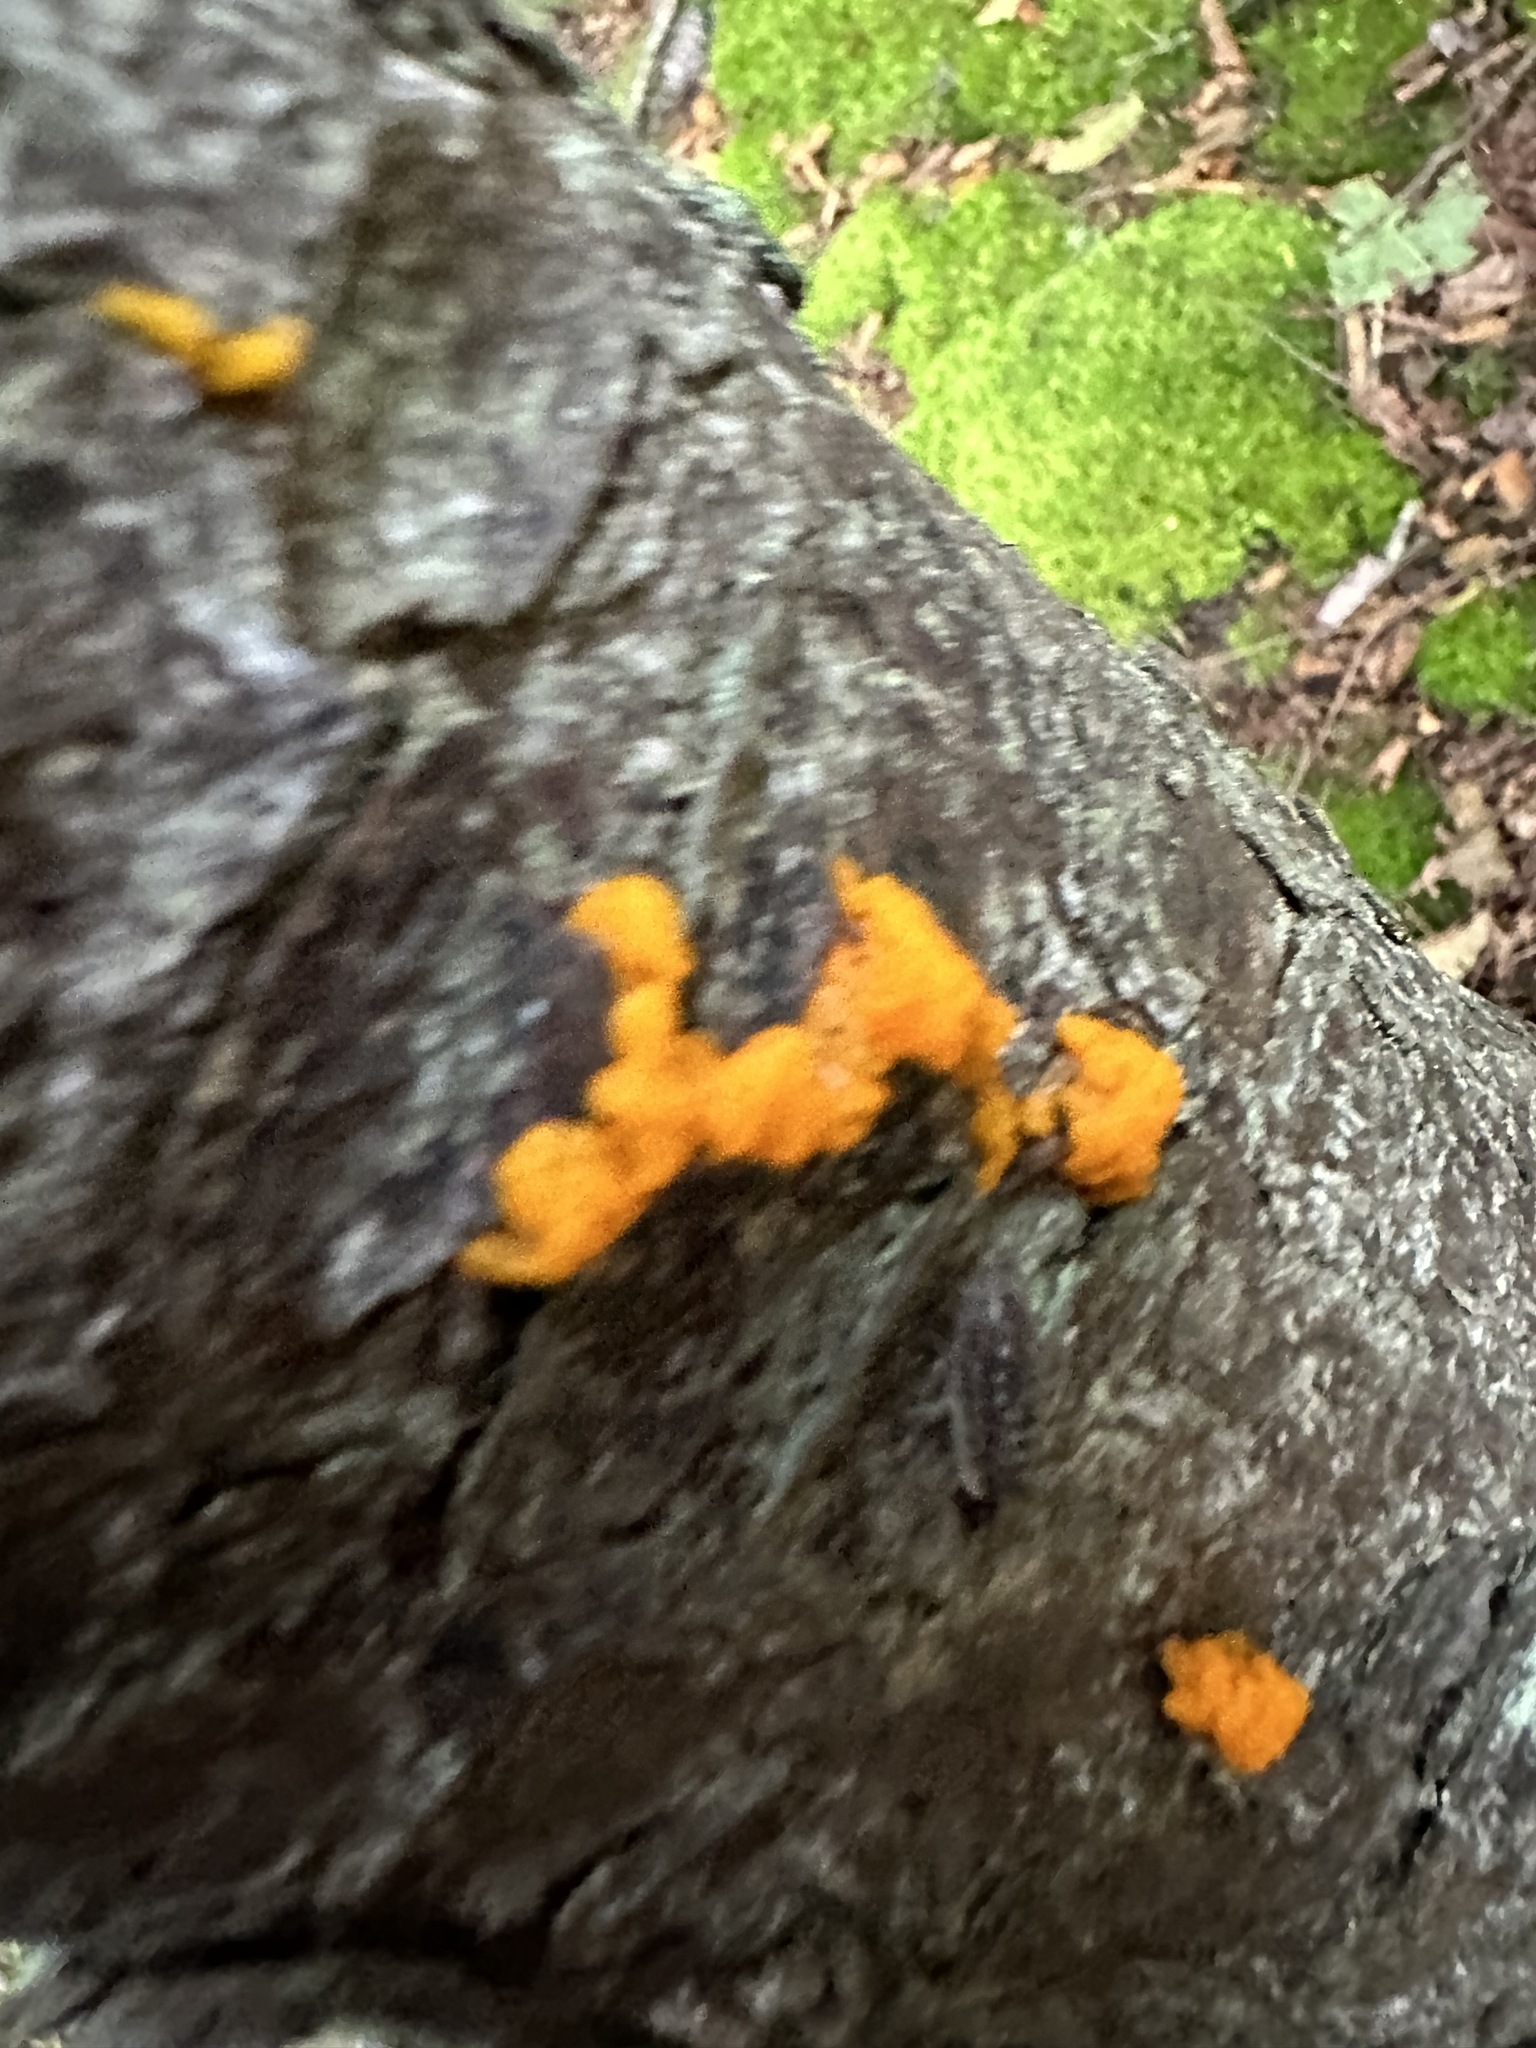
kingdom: Fungi
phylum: Basidiomycota
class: Dacrymycetes
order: Dacrymycetales
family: Dacrymycetaceae
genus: Dacrymyces
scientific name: Dacrymyces chrysospermus
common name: Orange jelly spot
